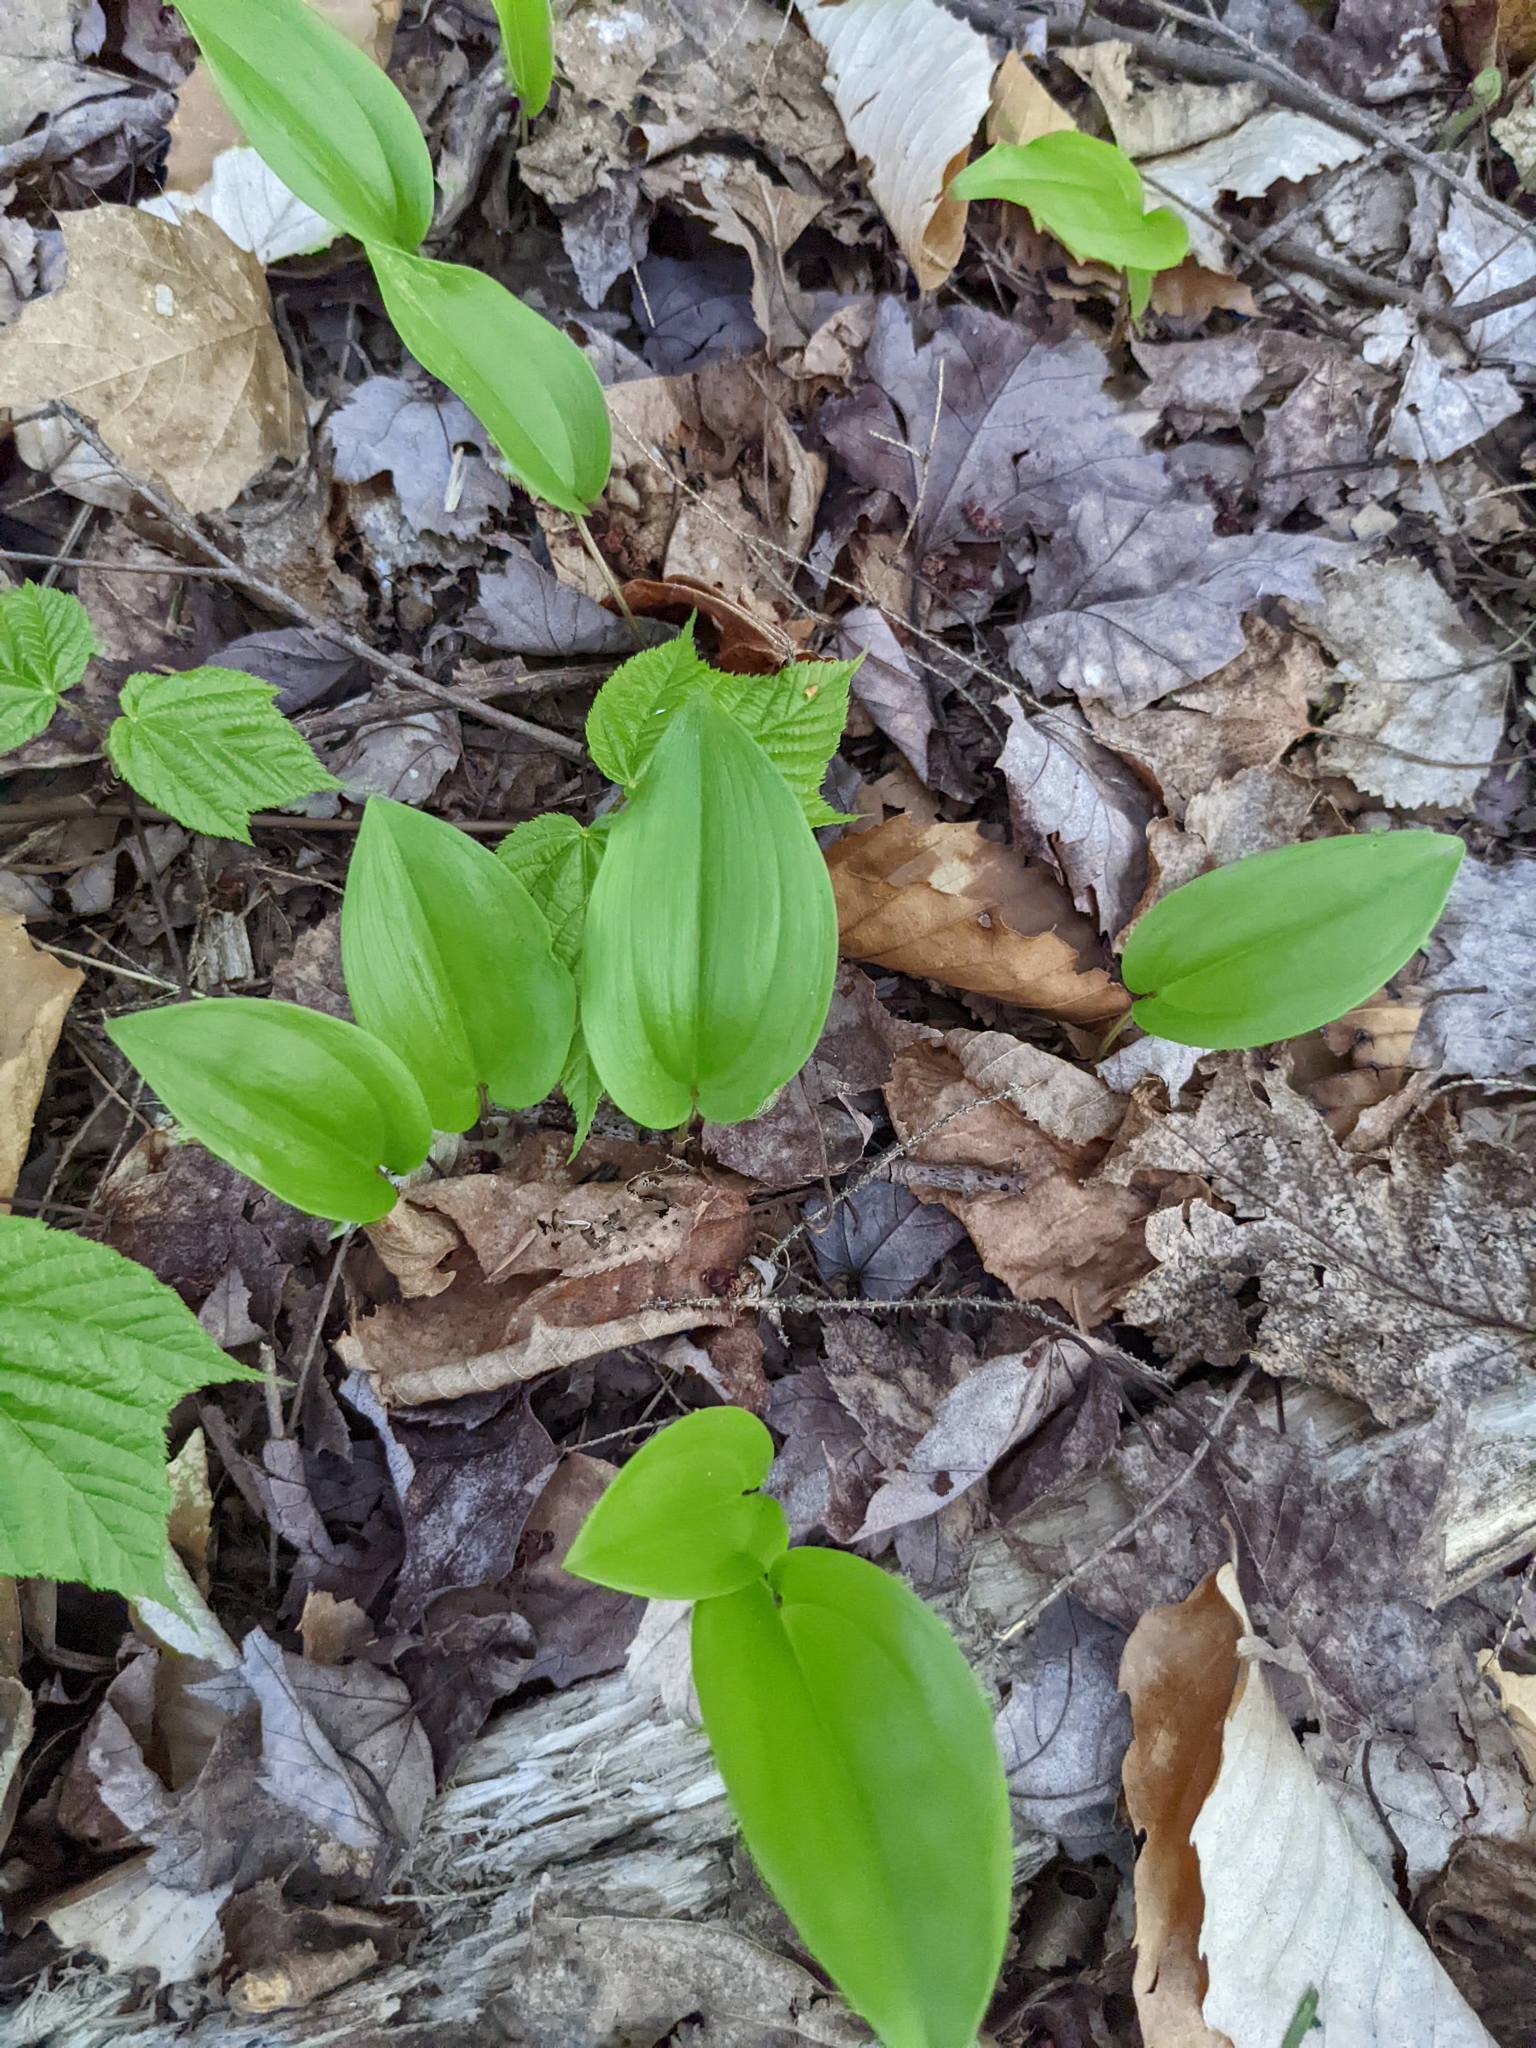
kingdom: Plantae
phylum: Tracheophyta
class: Liliopsida
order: Asparagales
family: Asparagaceae
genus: Maianthemum
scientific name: Maianthemum canadense
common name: False lily-of-the-valley
